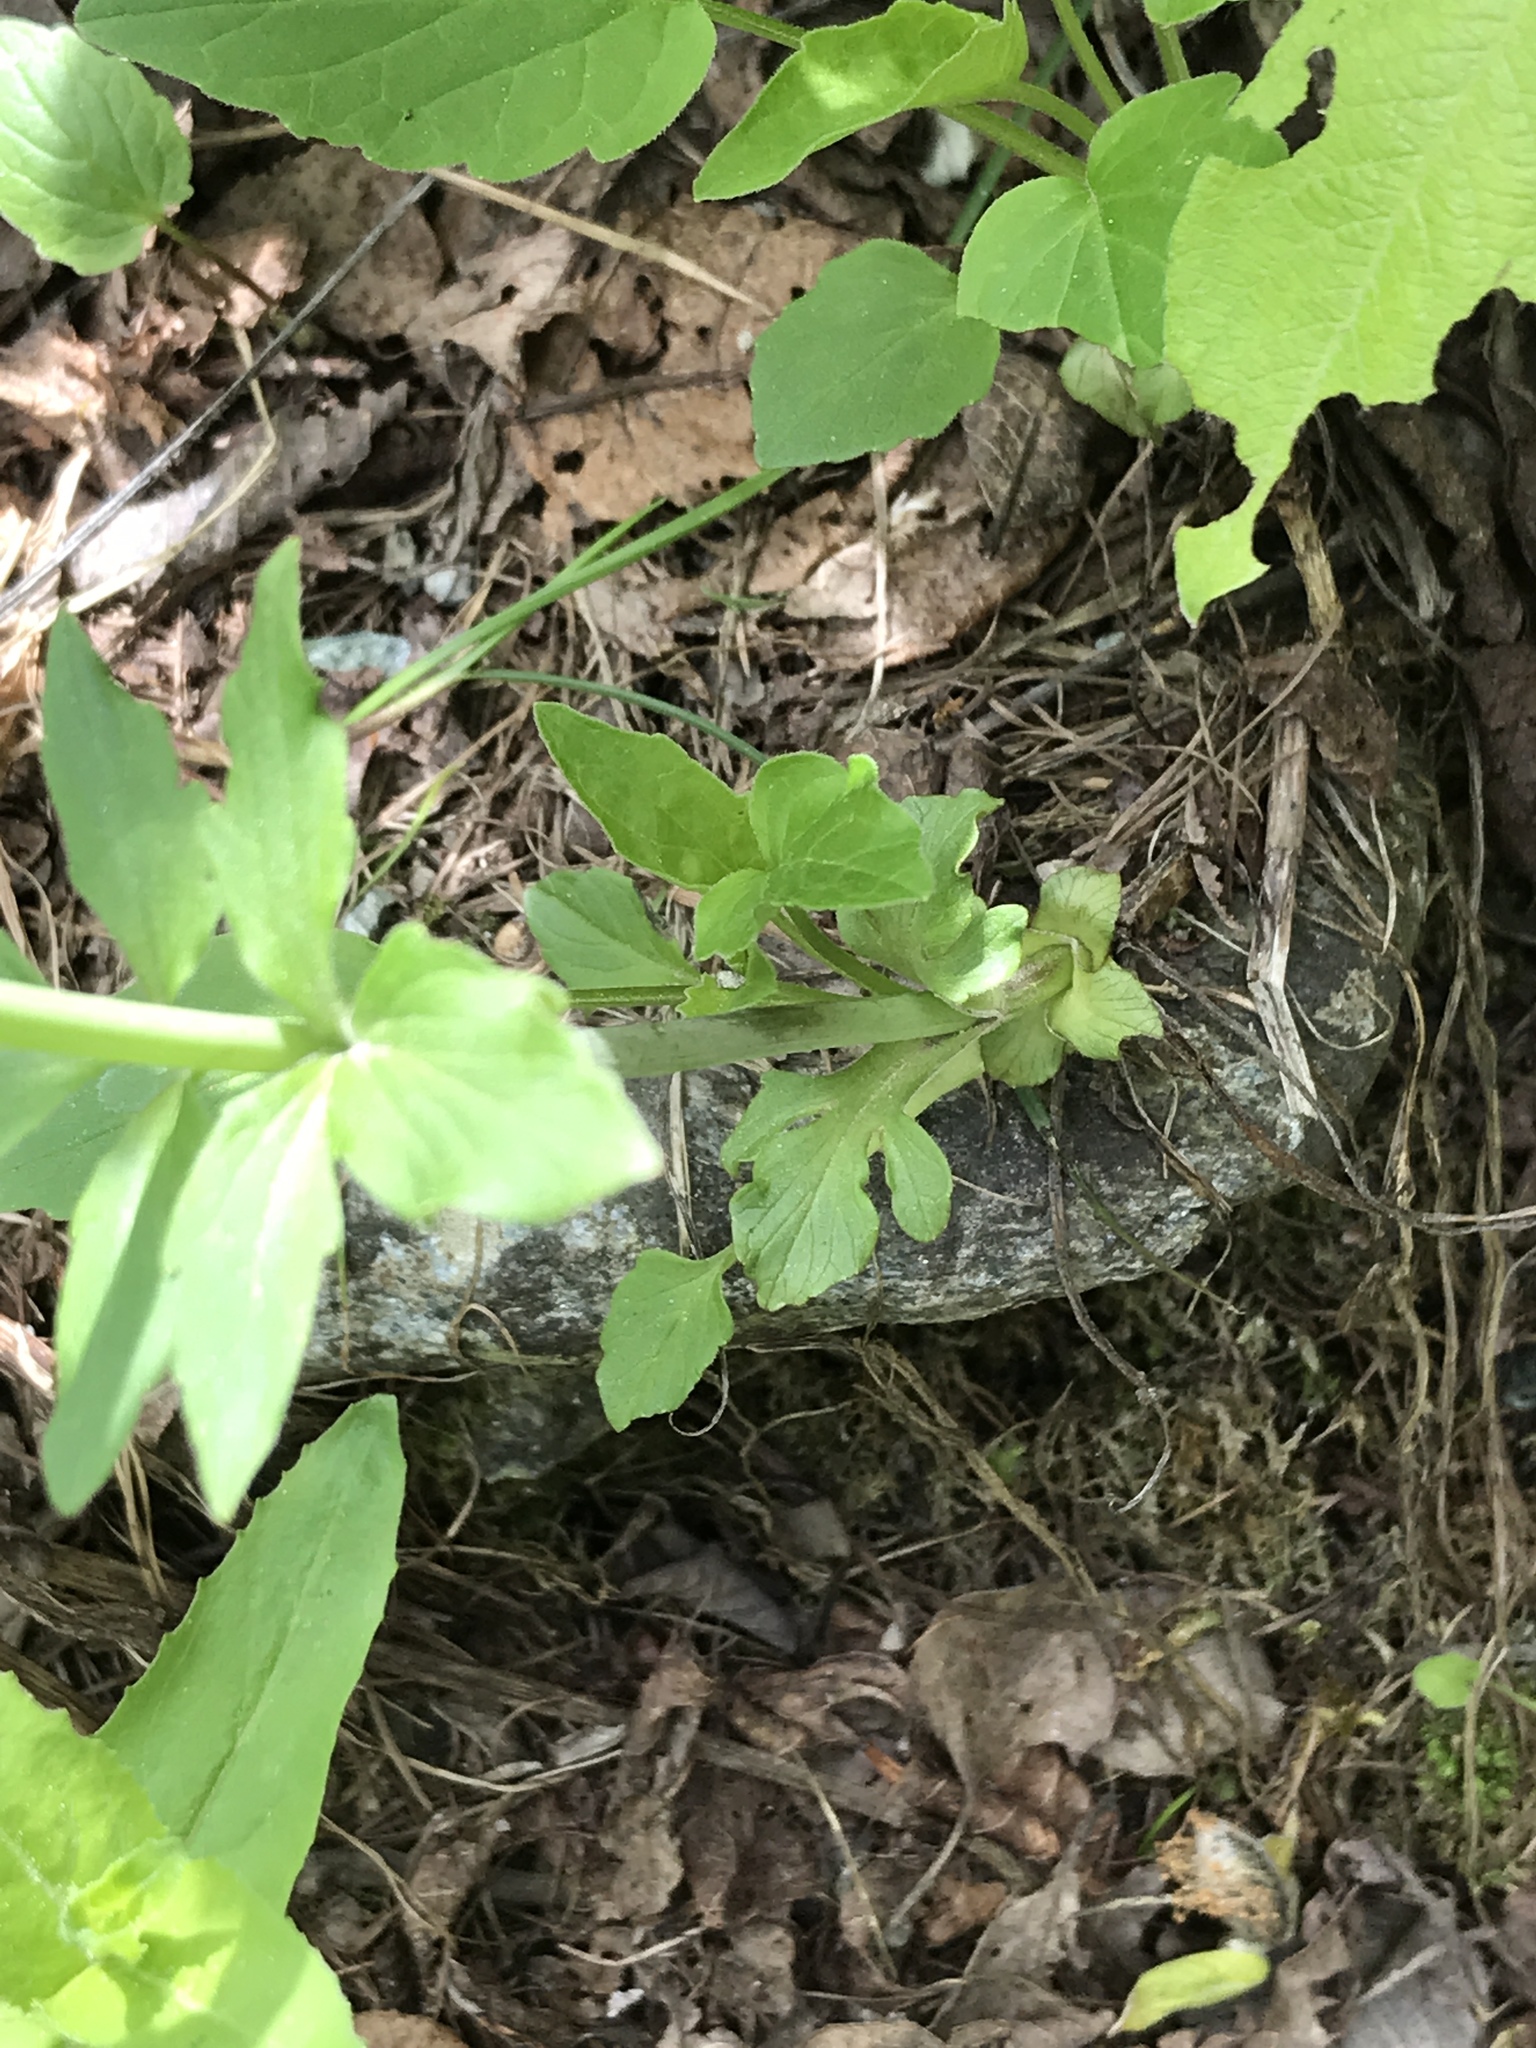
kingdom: Plantae
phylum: Tracheophyta
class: Magnoliopsida
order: Dipsacales
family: Caprifoliaceae
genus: Valeriana
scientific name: Valeriana tripteris
